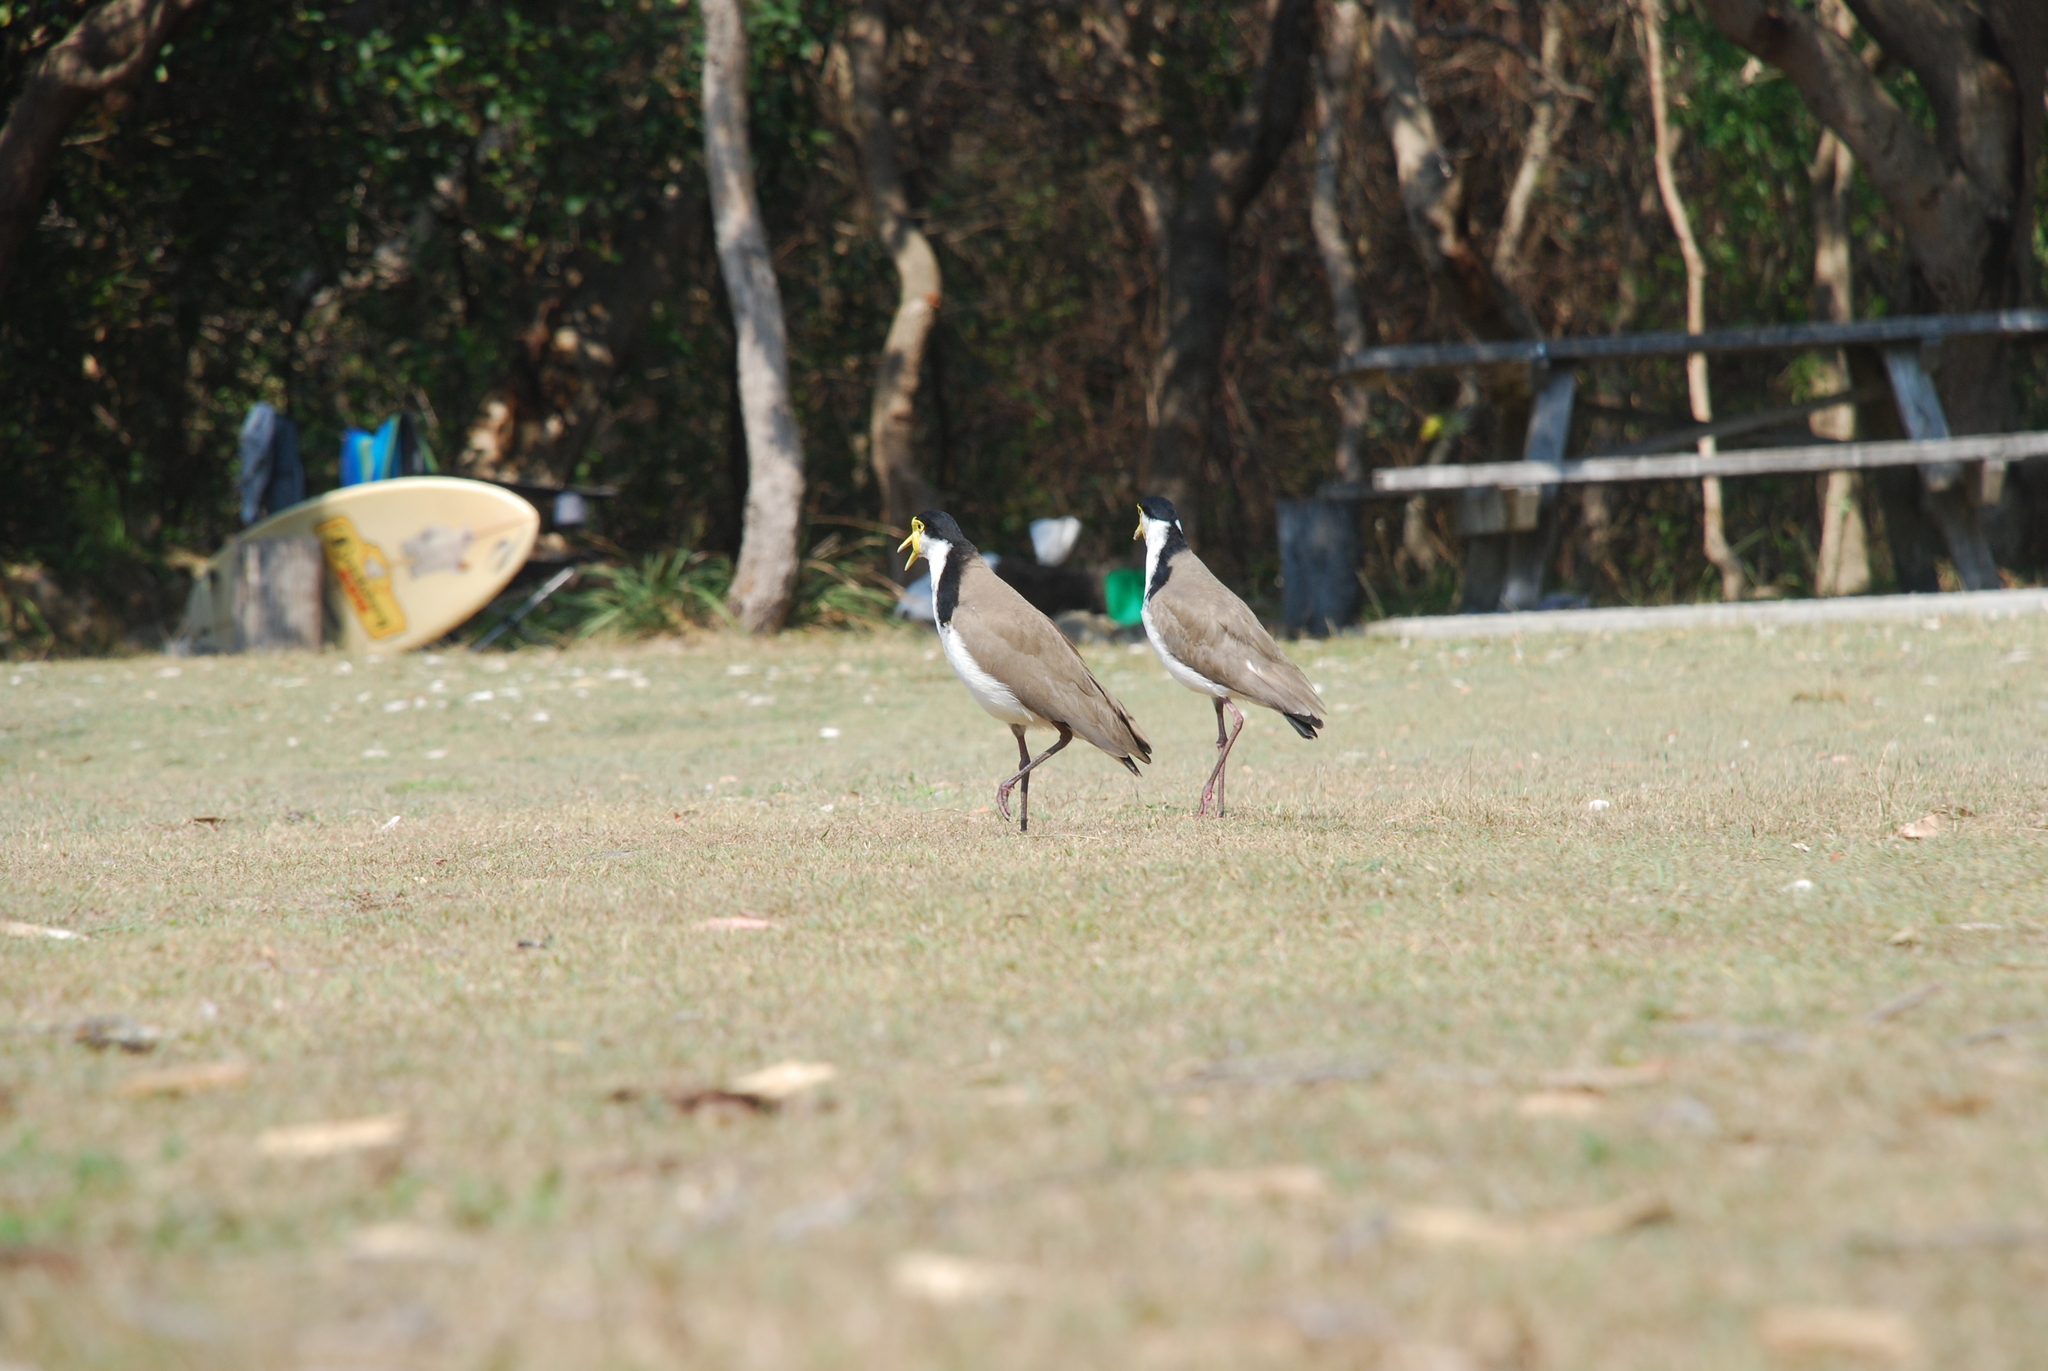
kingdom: Animalia
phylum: Chordata
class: Aves
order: Charadriiformes
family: Charadriidae
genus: Vanellus
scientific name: Vanellus miles
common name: Masked lapwing
